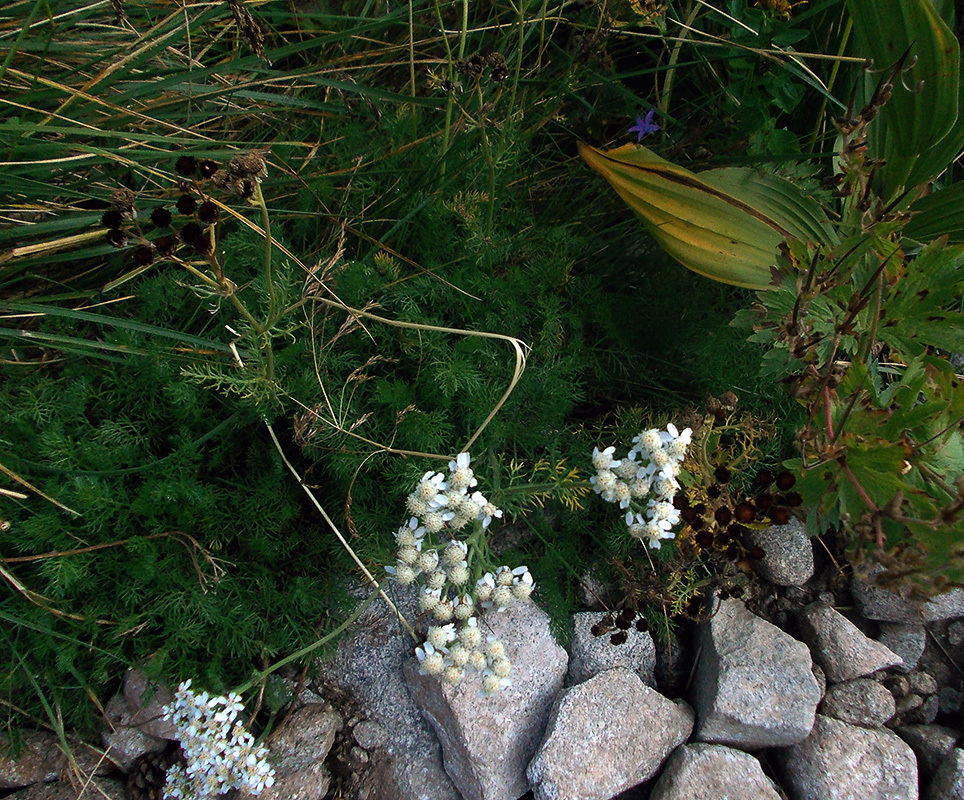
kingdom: Plantae
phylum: Tracheophyta
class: Magnoliopsida
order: Asterales
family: Asteraceae
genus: Achillea
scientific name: Achillea multifida
